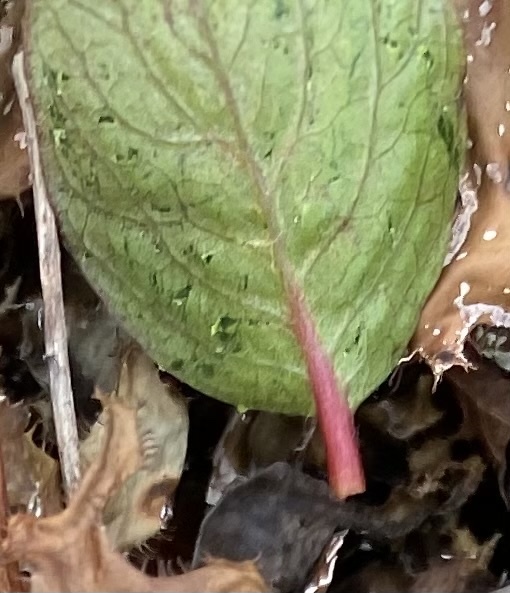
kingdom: Plantae
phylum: Tracheophyta
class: Magnoliopsida
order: Malpighiales
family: Salicaceae
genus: Salix
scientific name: Salix polaris
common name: Polar willow
